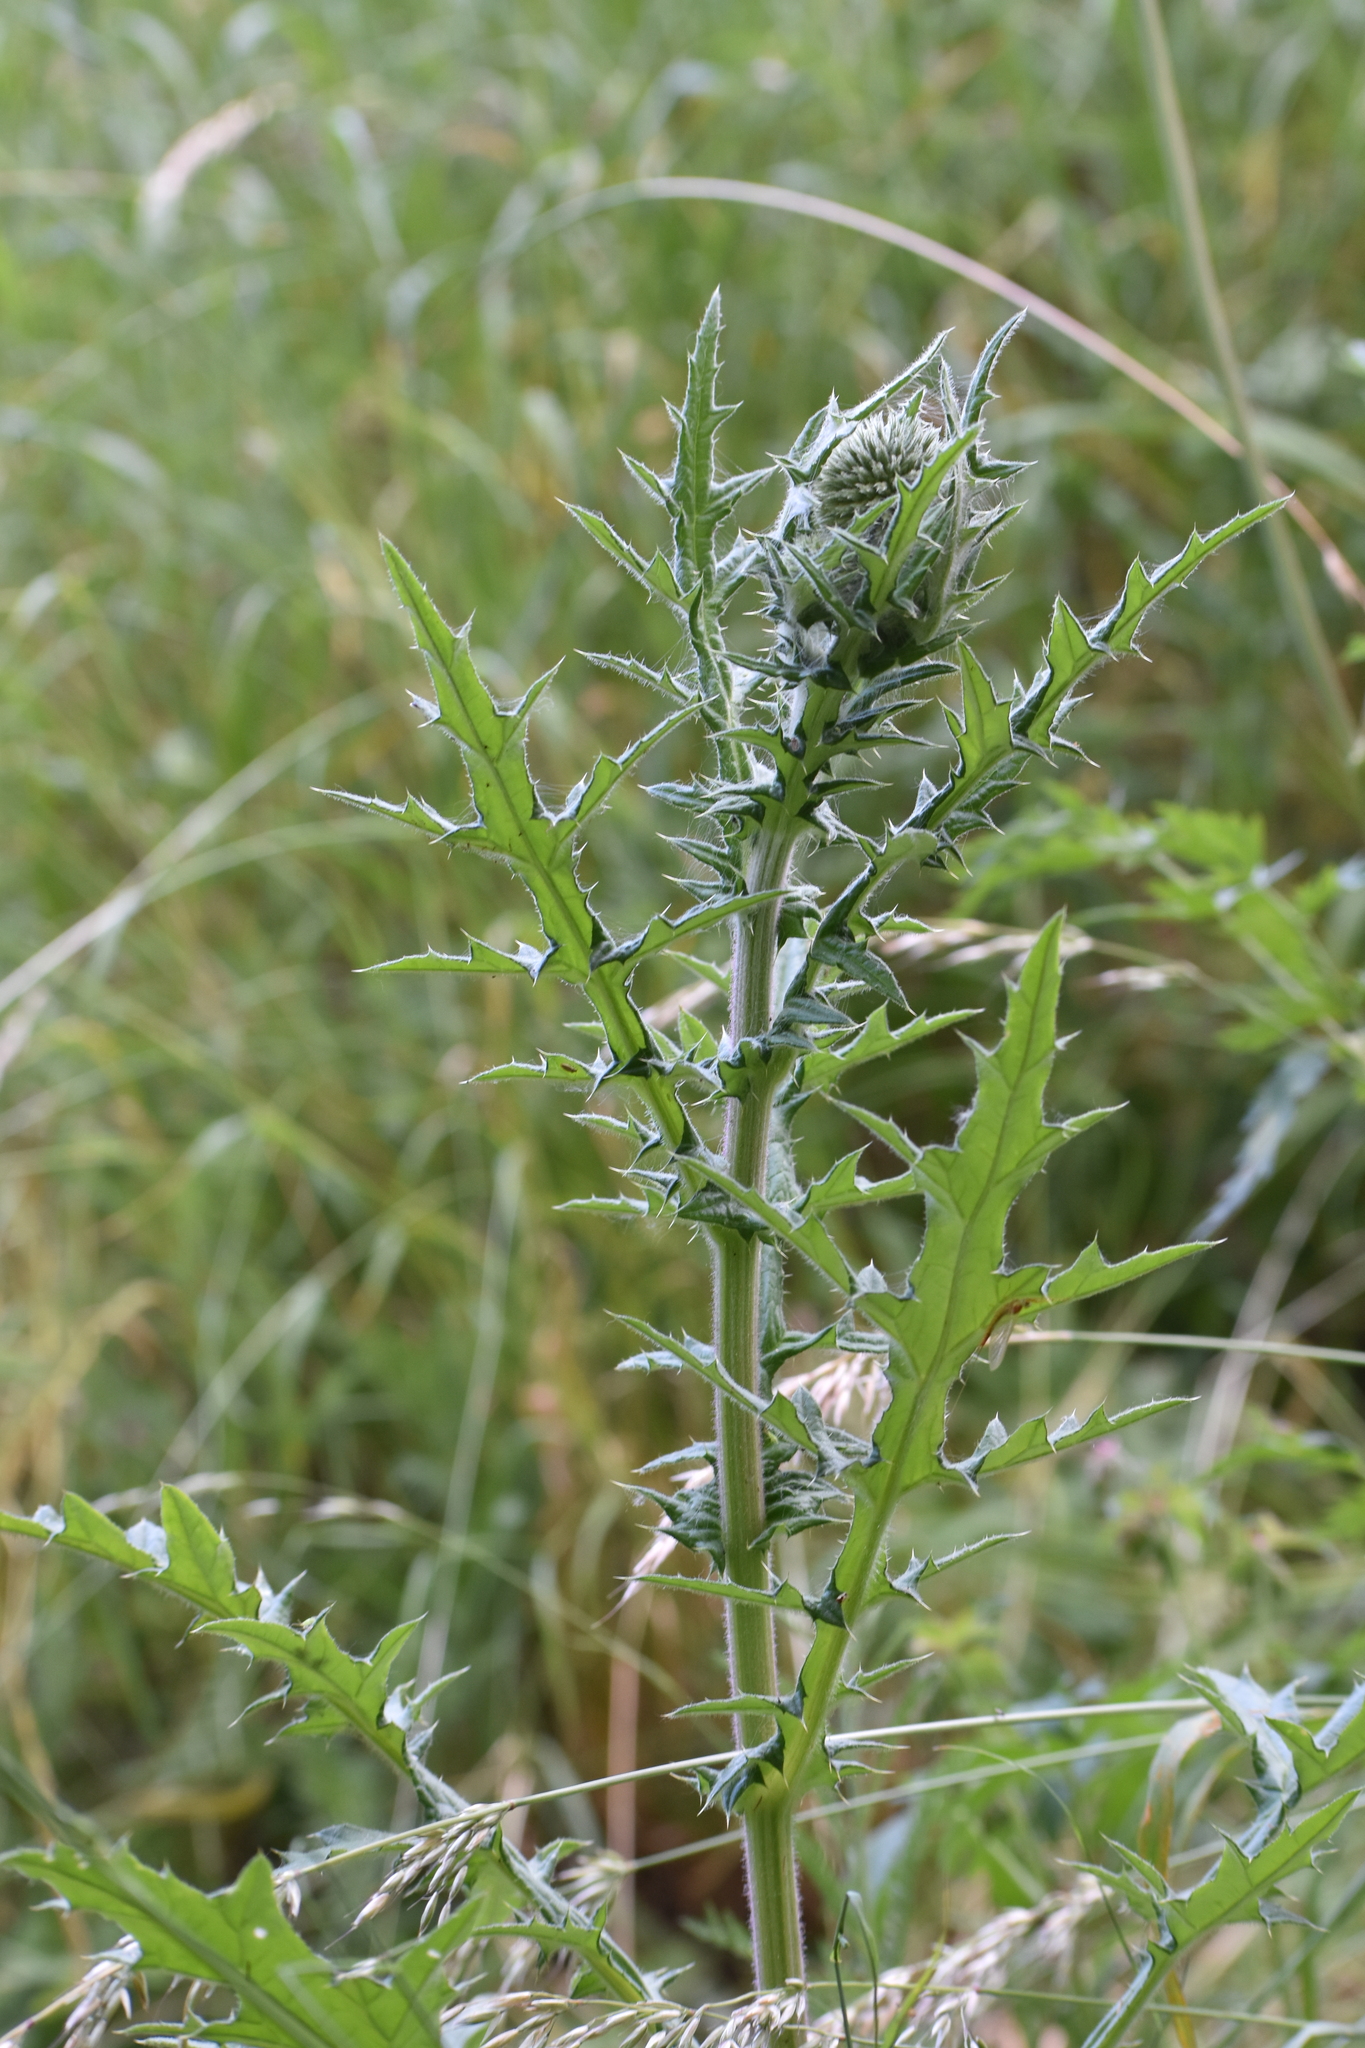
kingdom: Plantae
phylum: Tracheophyta
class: Magnoliopsida
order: Asterales
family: Asteraceae
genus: Echinops
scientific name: Echinops sphaerocephalus
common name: Glandular globe-thistle
